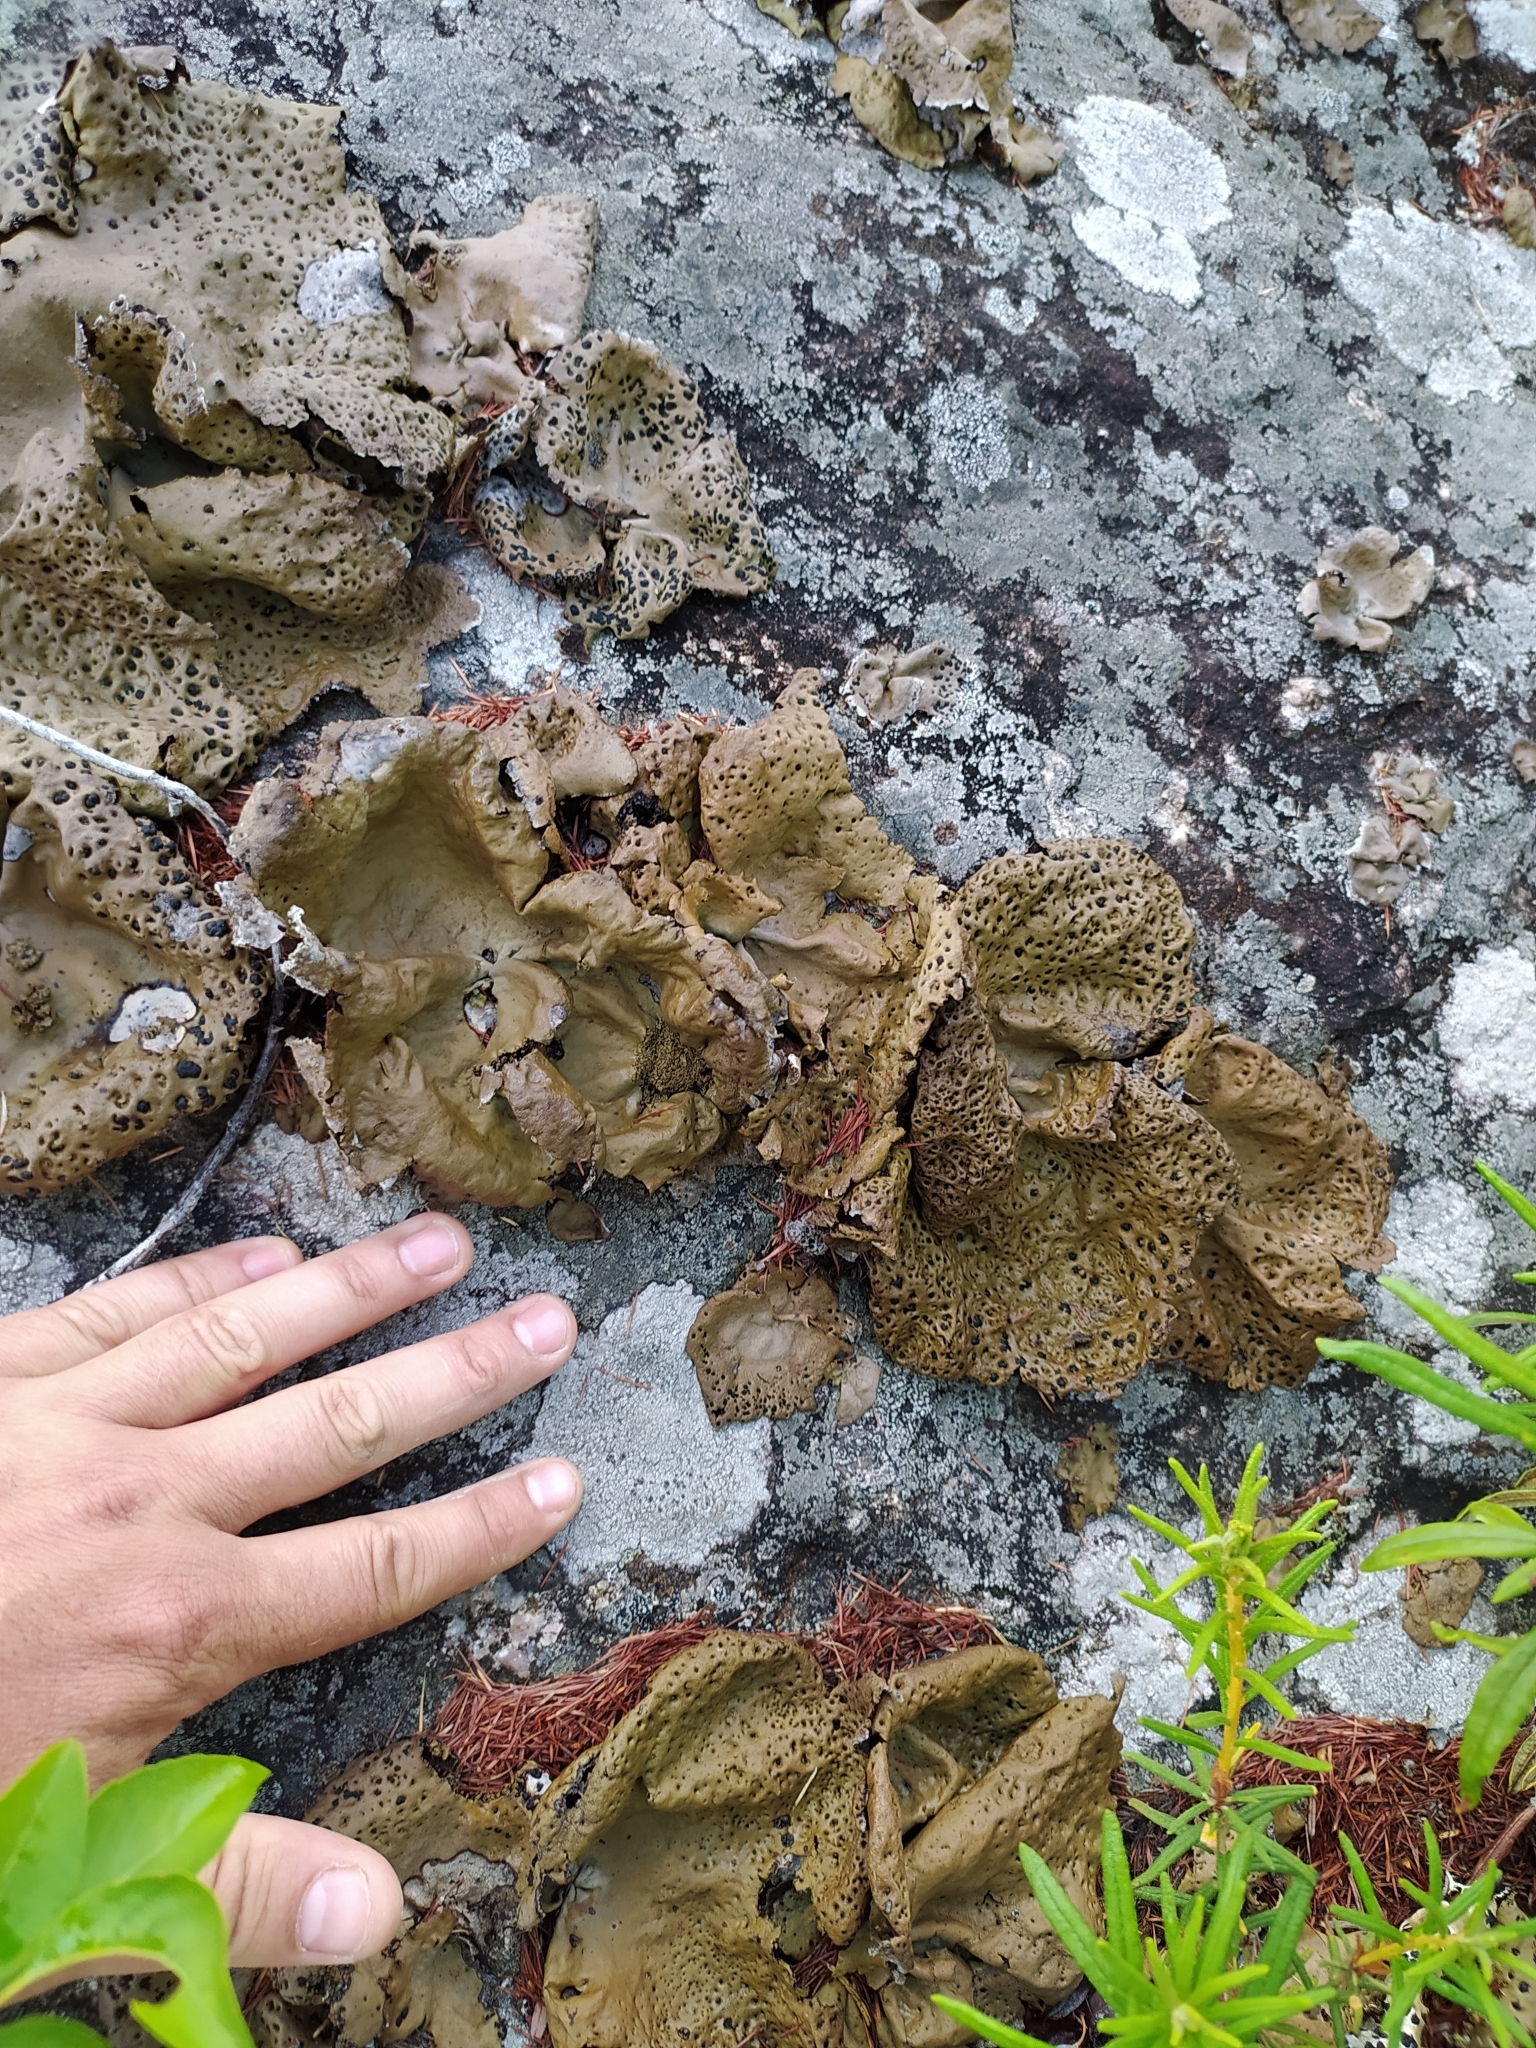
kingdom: Fungi
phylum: Ascomycota
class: Lecanoromycetes
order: Umbilicariales
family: Umbilicariaceae
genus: Umbilicaria
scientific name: Umbilicaria muhlenbergii
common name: Lesser rocktripe
